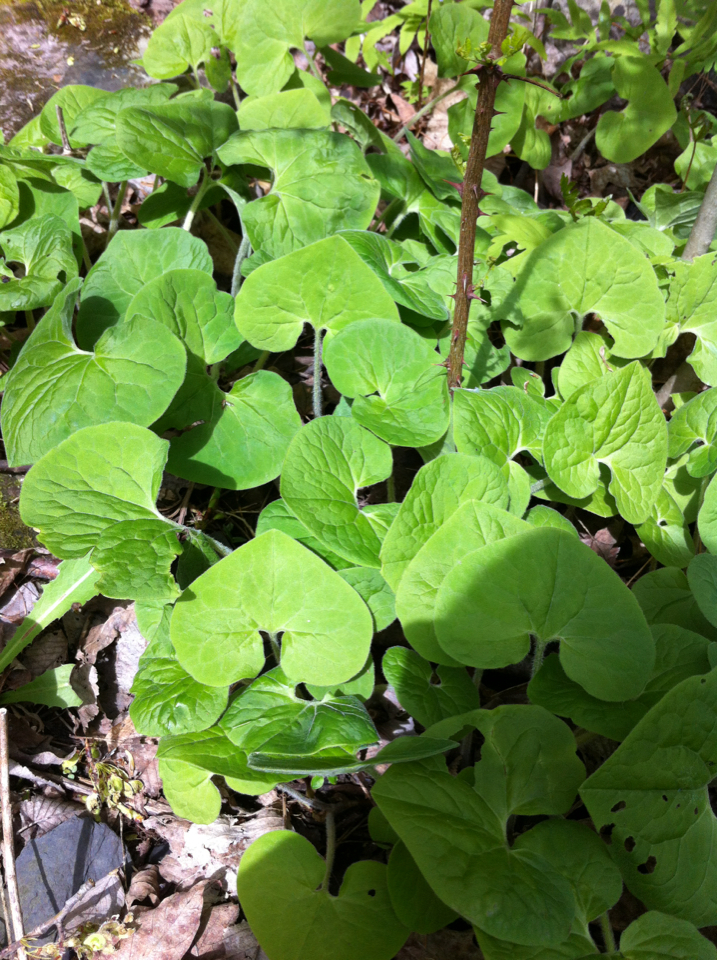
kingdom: Plantae
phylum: Tracheophyta
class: Magnoliopsida
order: Piperales
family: Aristolochiaceae
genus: Asarum
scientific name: Asarum canadense
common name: Wild ginger
